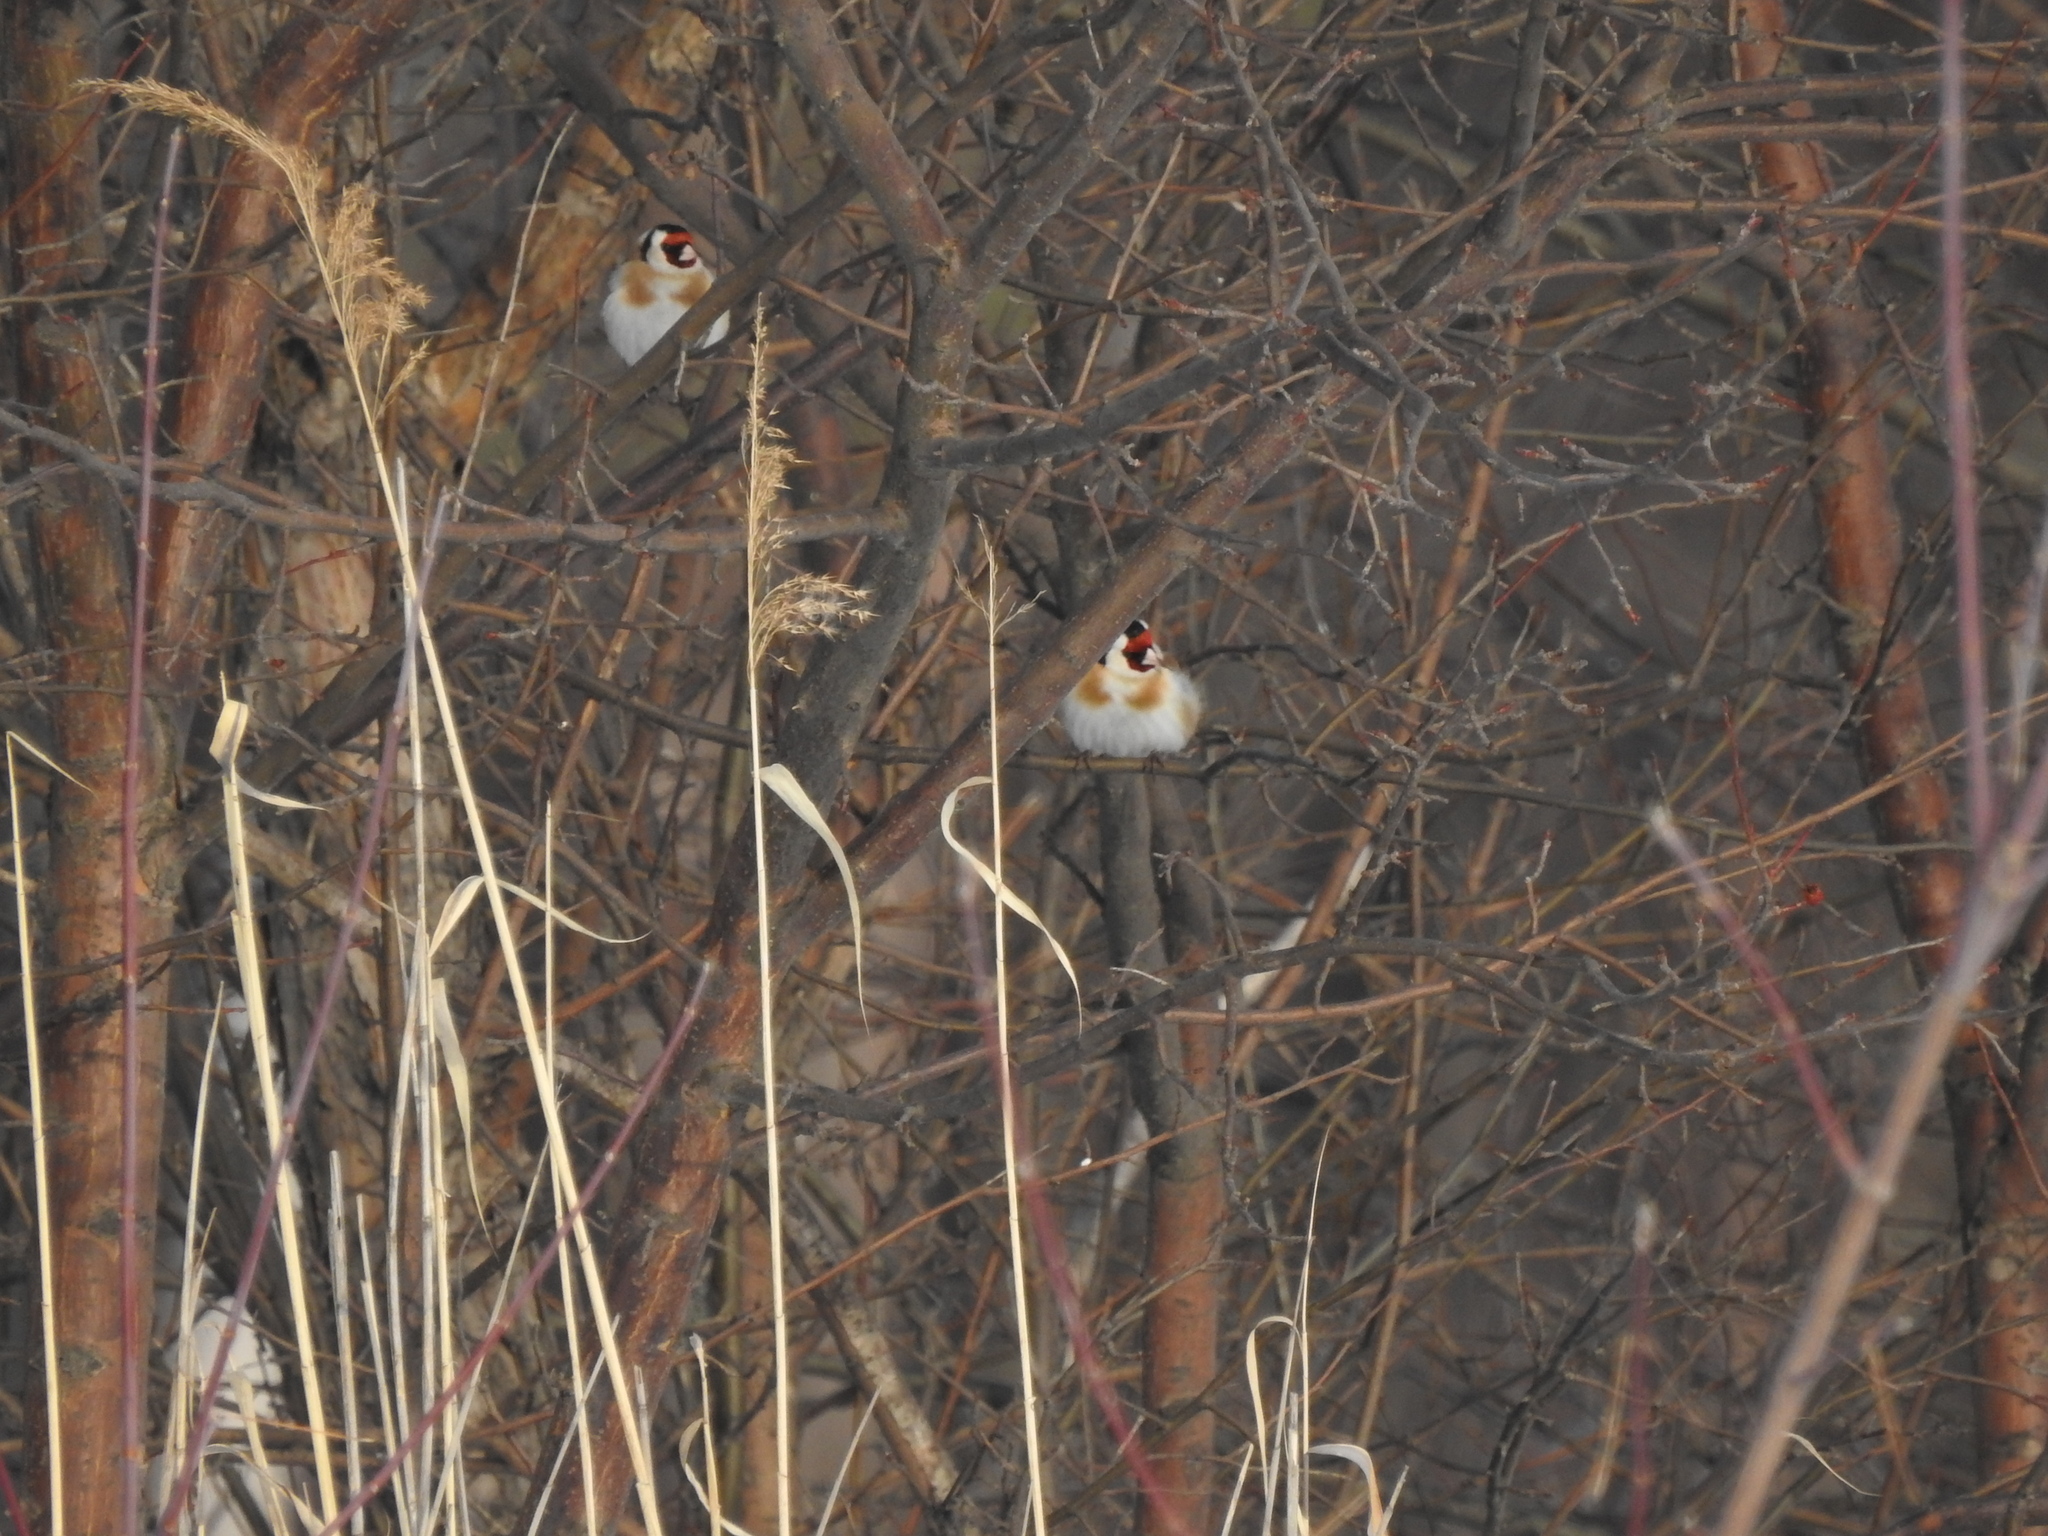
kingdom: Animalia
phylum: Chordata
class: Aves
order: Passeriformes
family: Fringillidae
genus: Carduelis
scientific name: Carduelis carduelis
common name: European goldfinch
